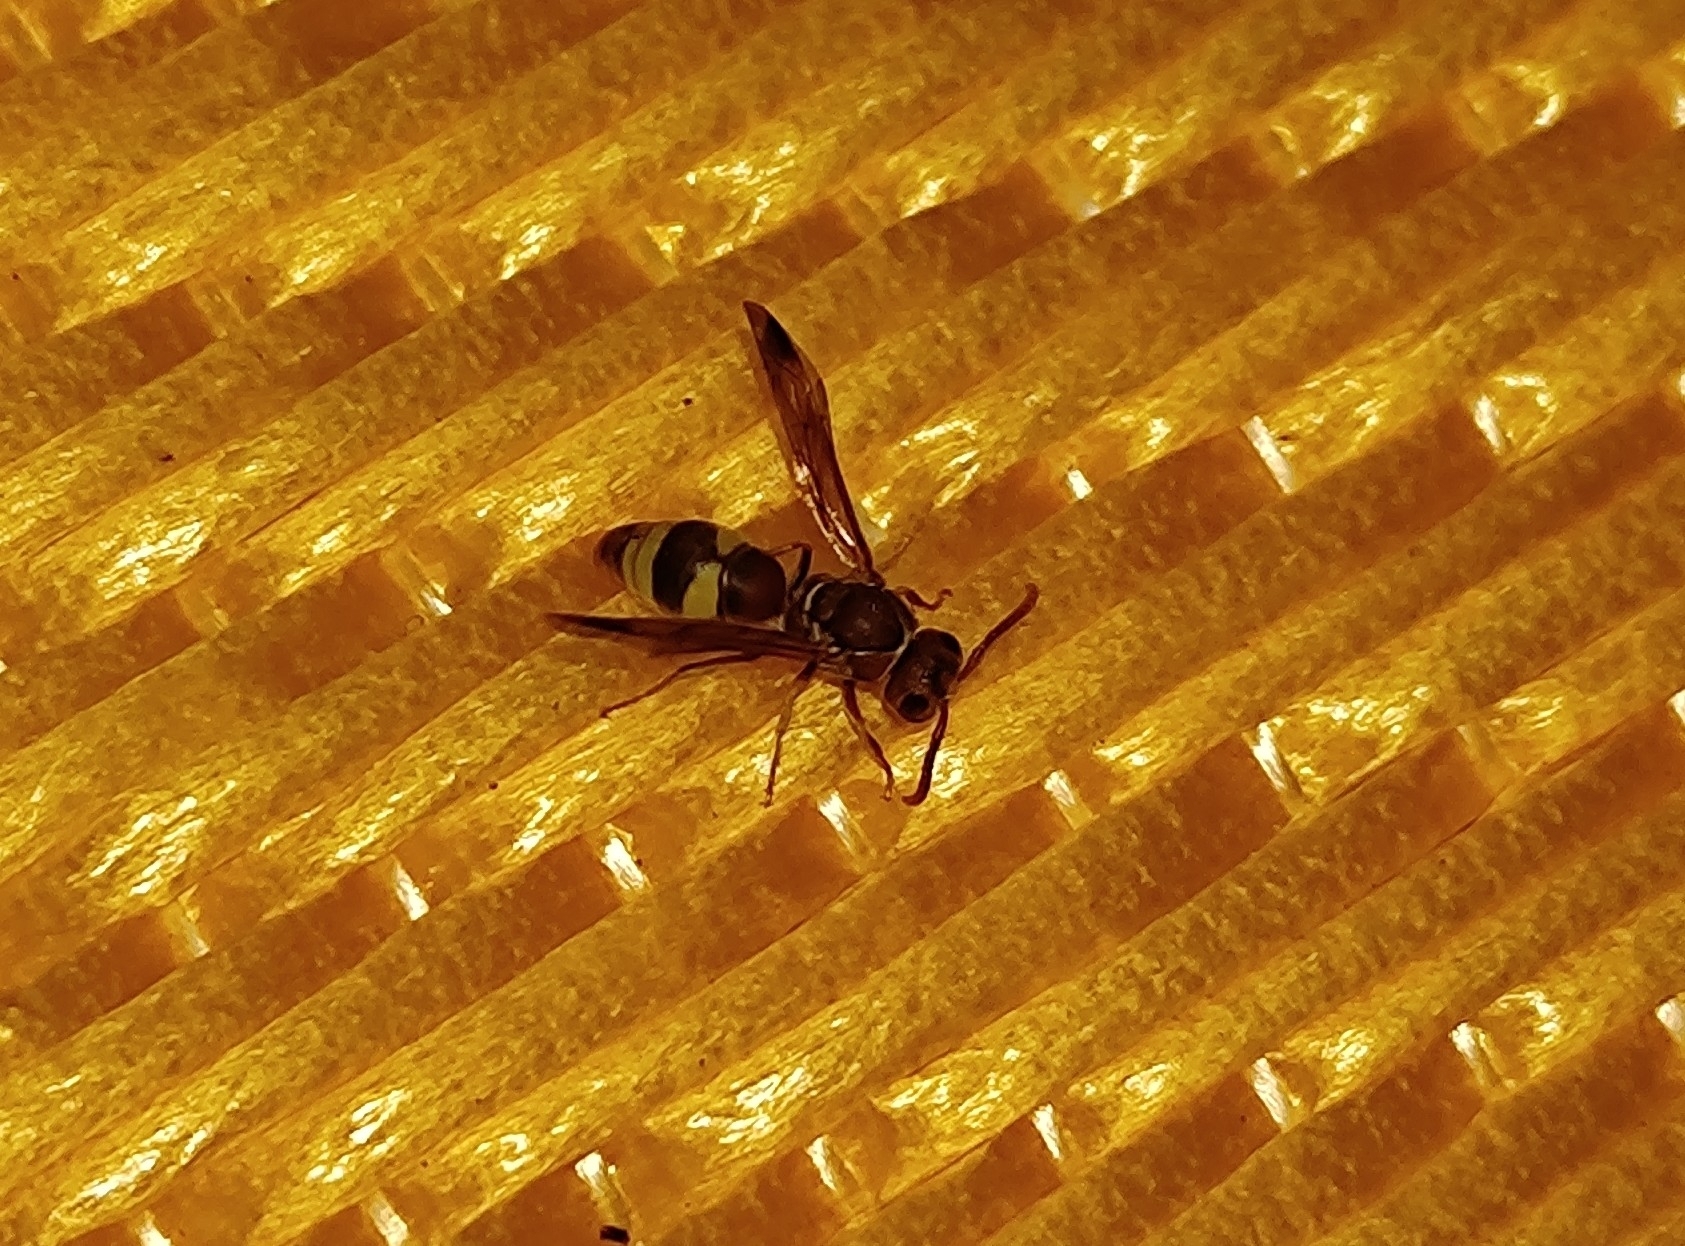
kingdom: Animalia
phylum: Arthropoda
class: Insecta
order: Hymenoptera
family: Eumenidae
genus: Antodynerus
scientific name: Antodynerus punctatipennis
